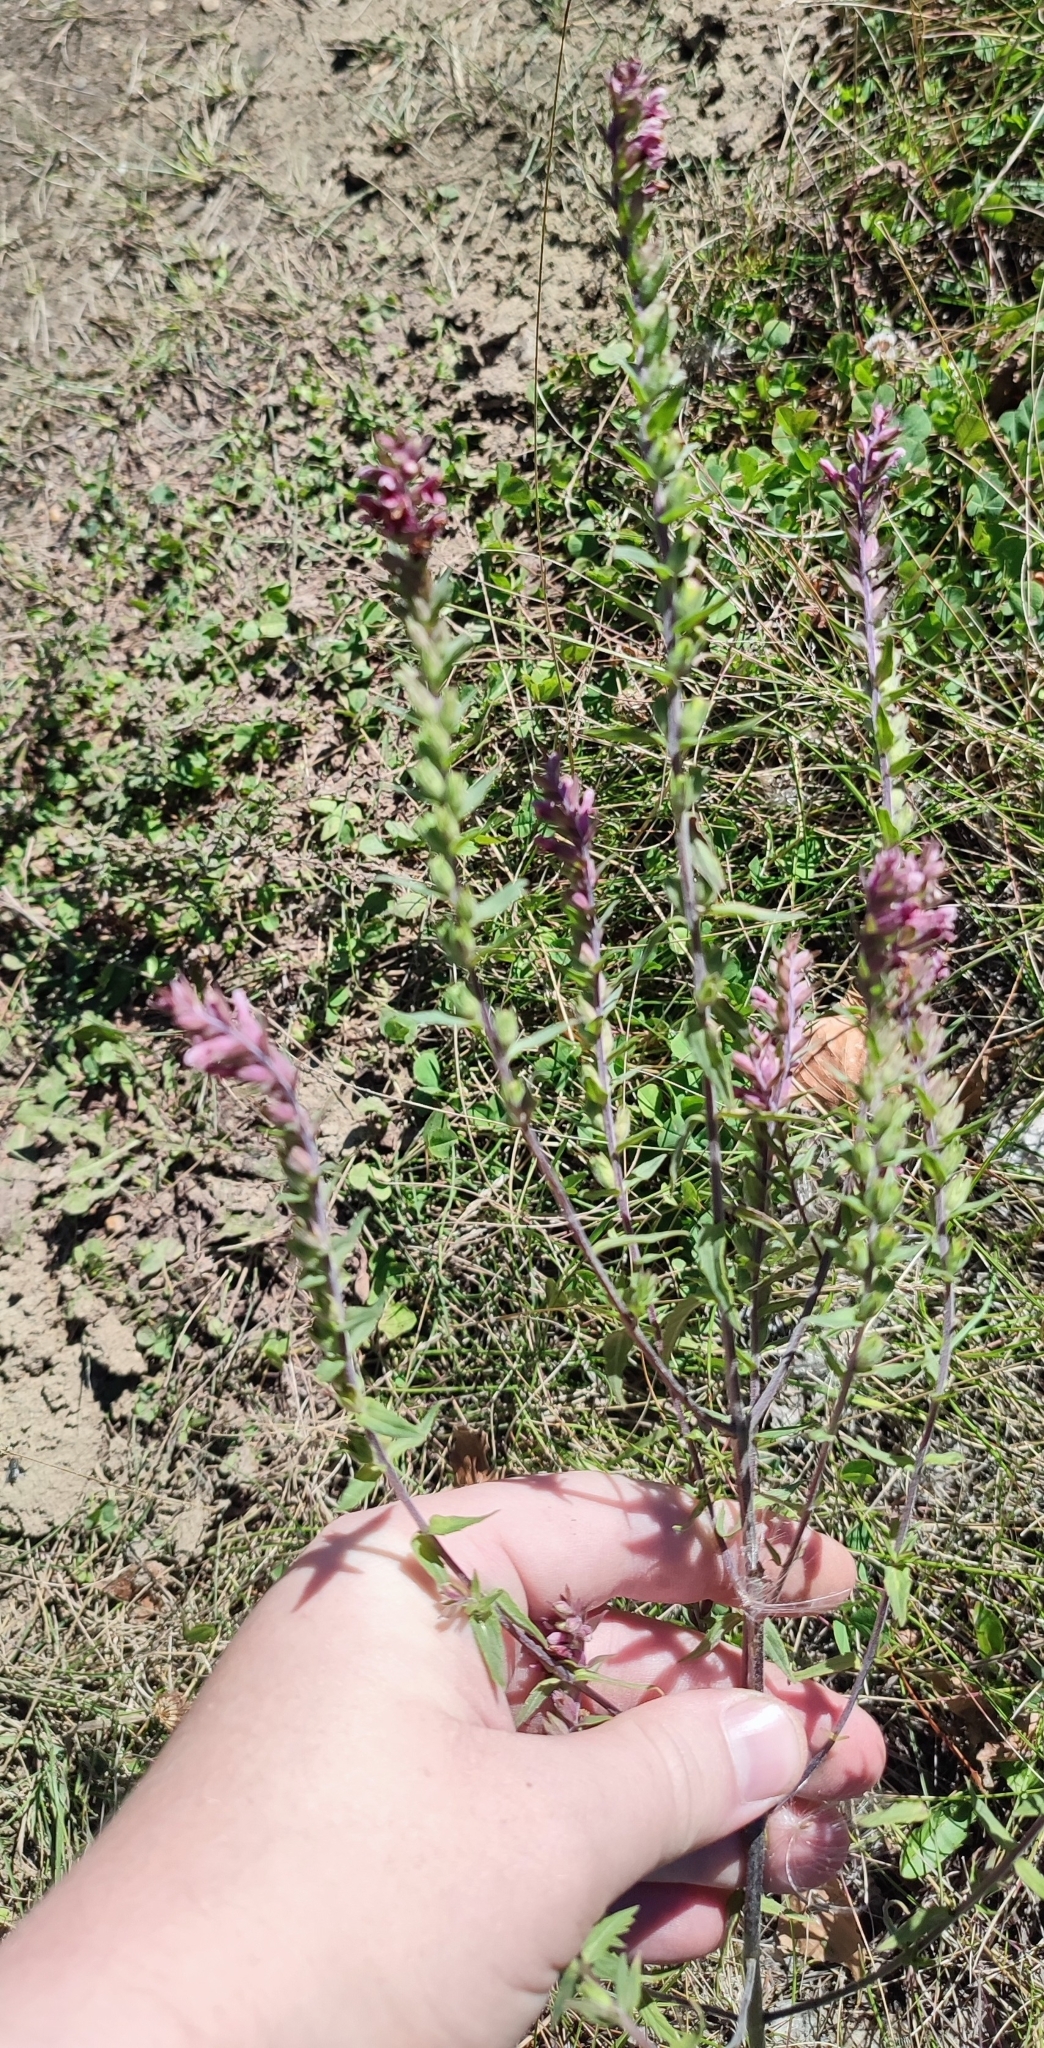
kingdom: Plantae
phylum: Tracheophyta
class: Magnoliopsida
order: Lamiales
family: Orobanchaceae
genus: Odontites
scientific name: Odontites vulgaris
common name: Broomrape
